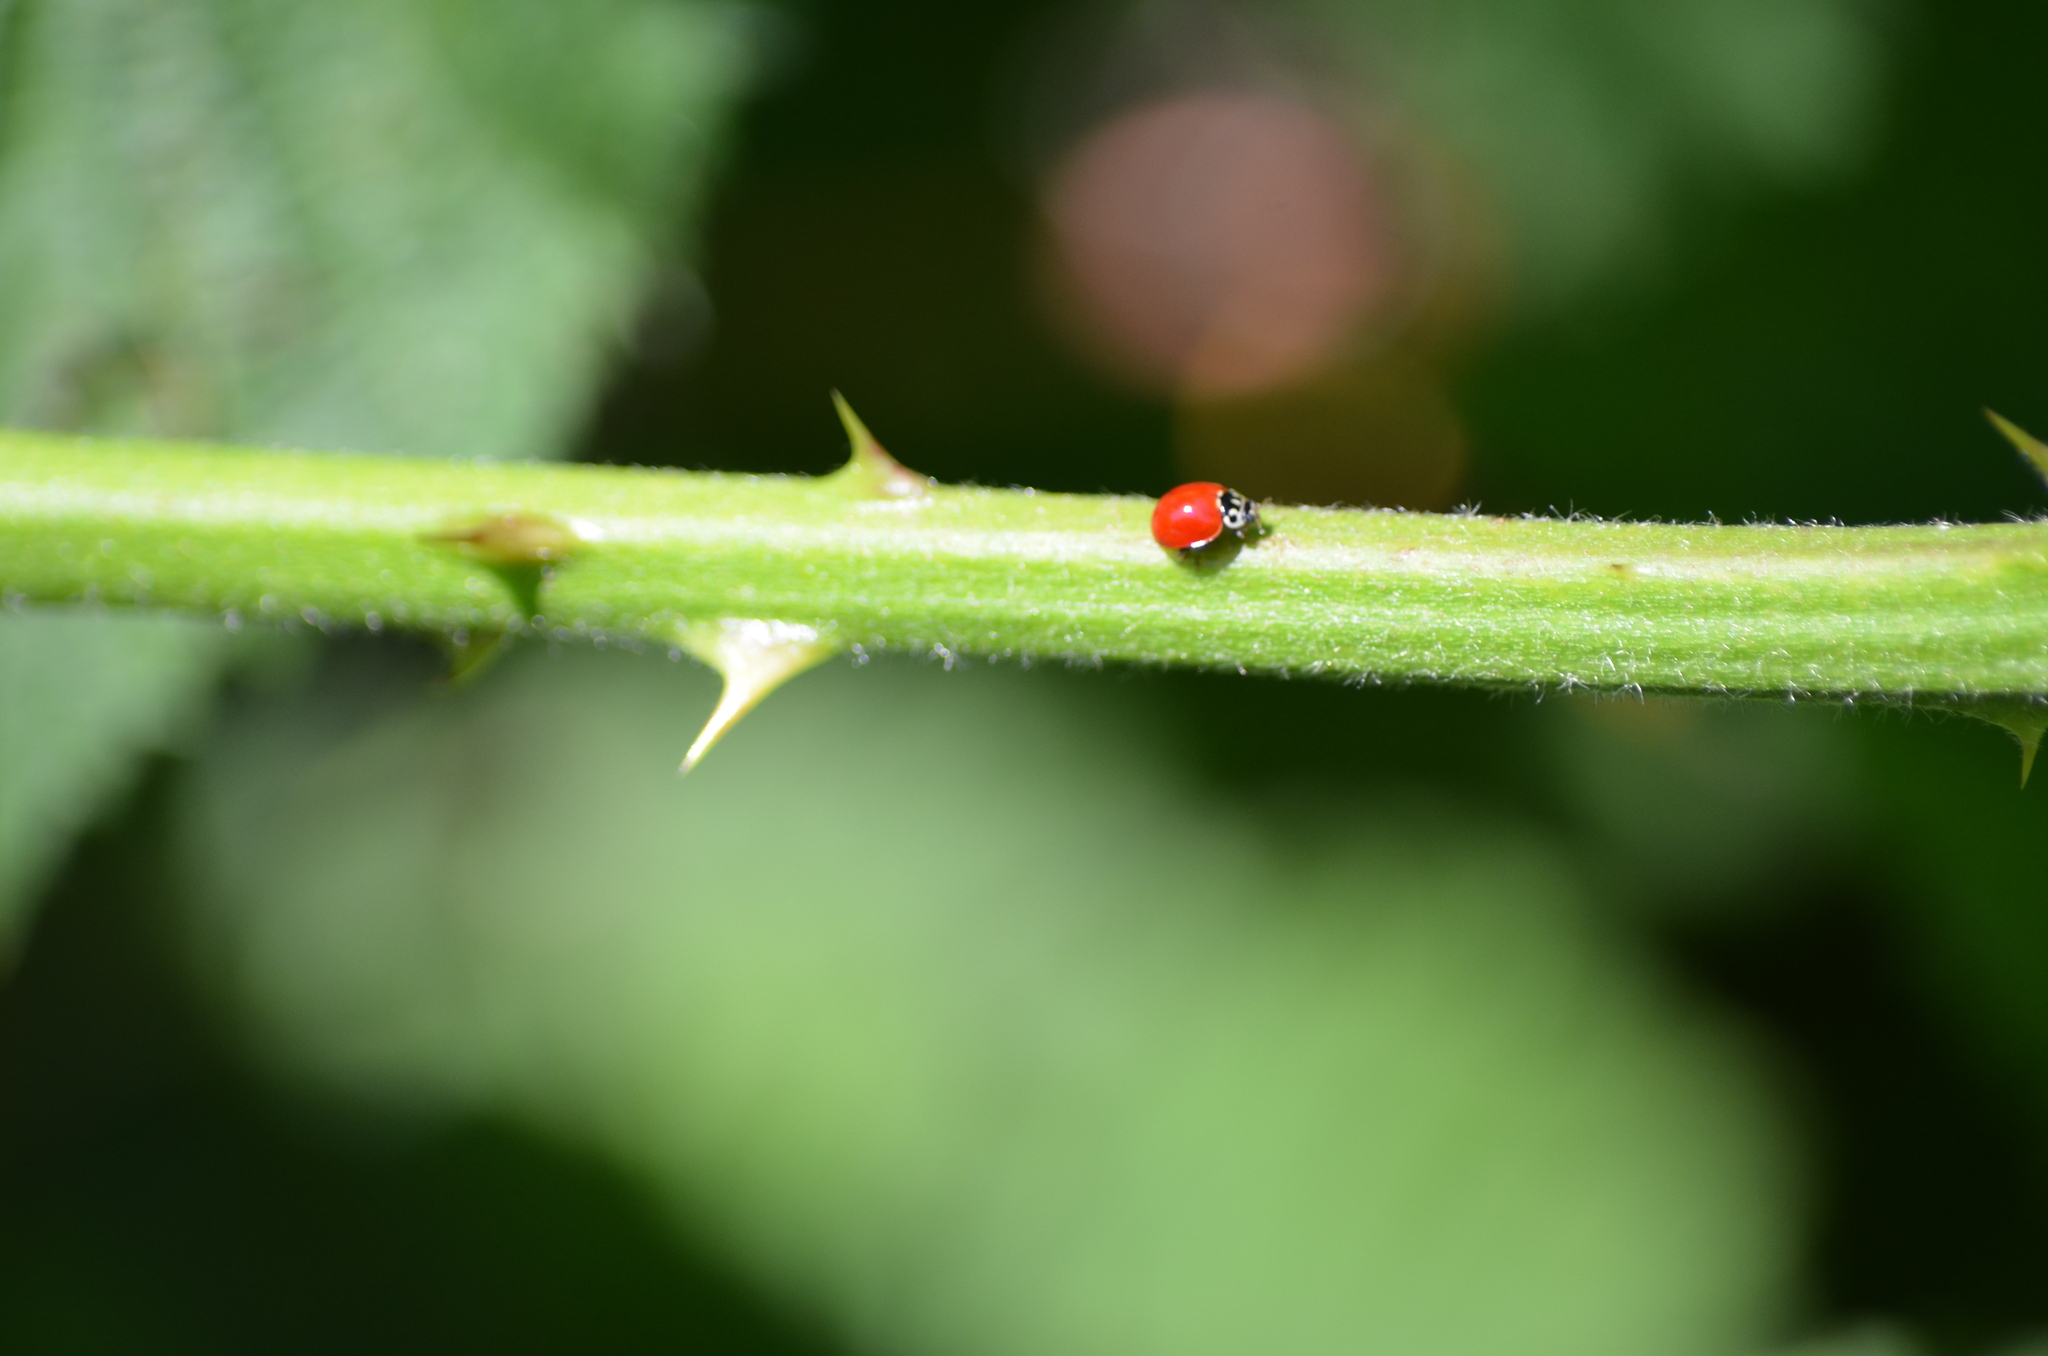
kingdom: Animalia
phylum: Arthropoda
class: Insecta
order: Coleoptera
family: Coccinellidae
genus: Cycloneda
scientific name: Cycloneda polita
